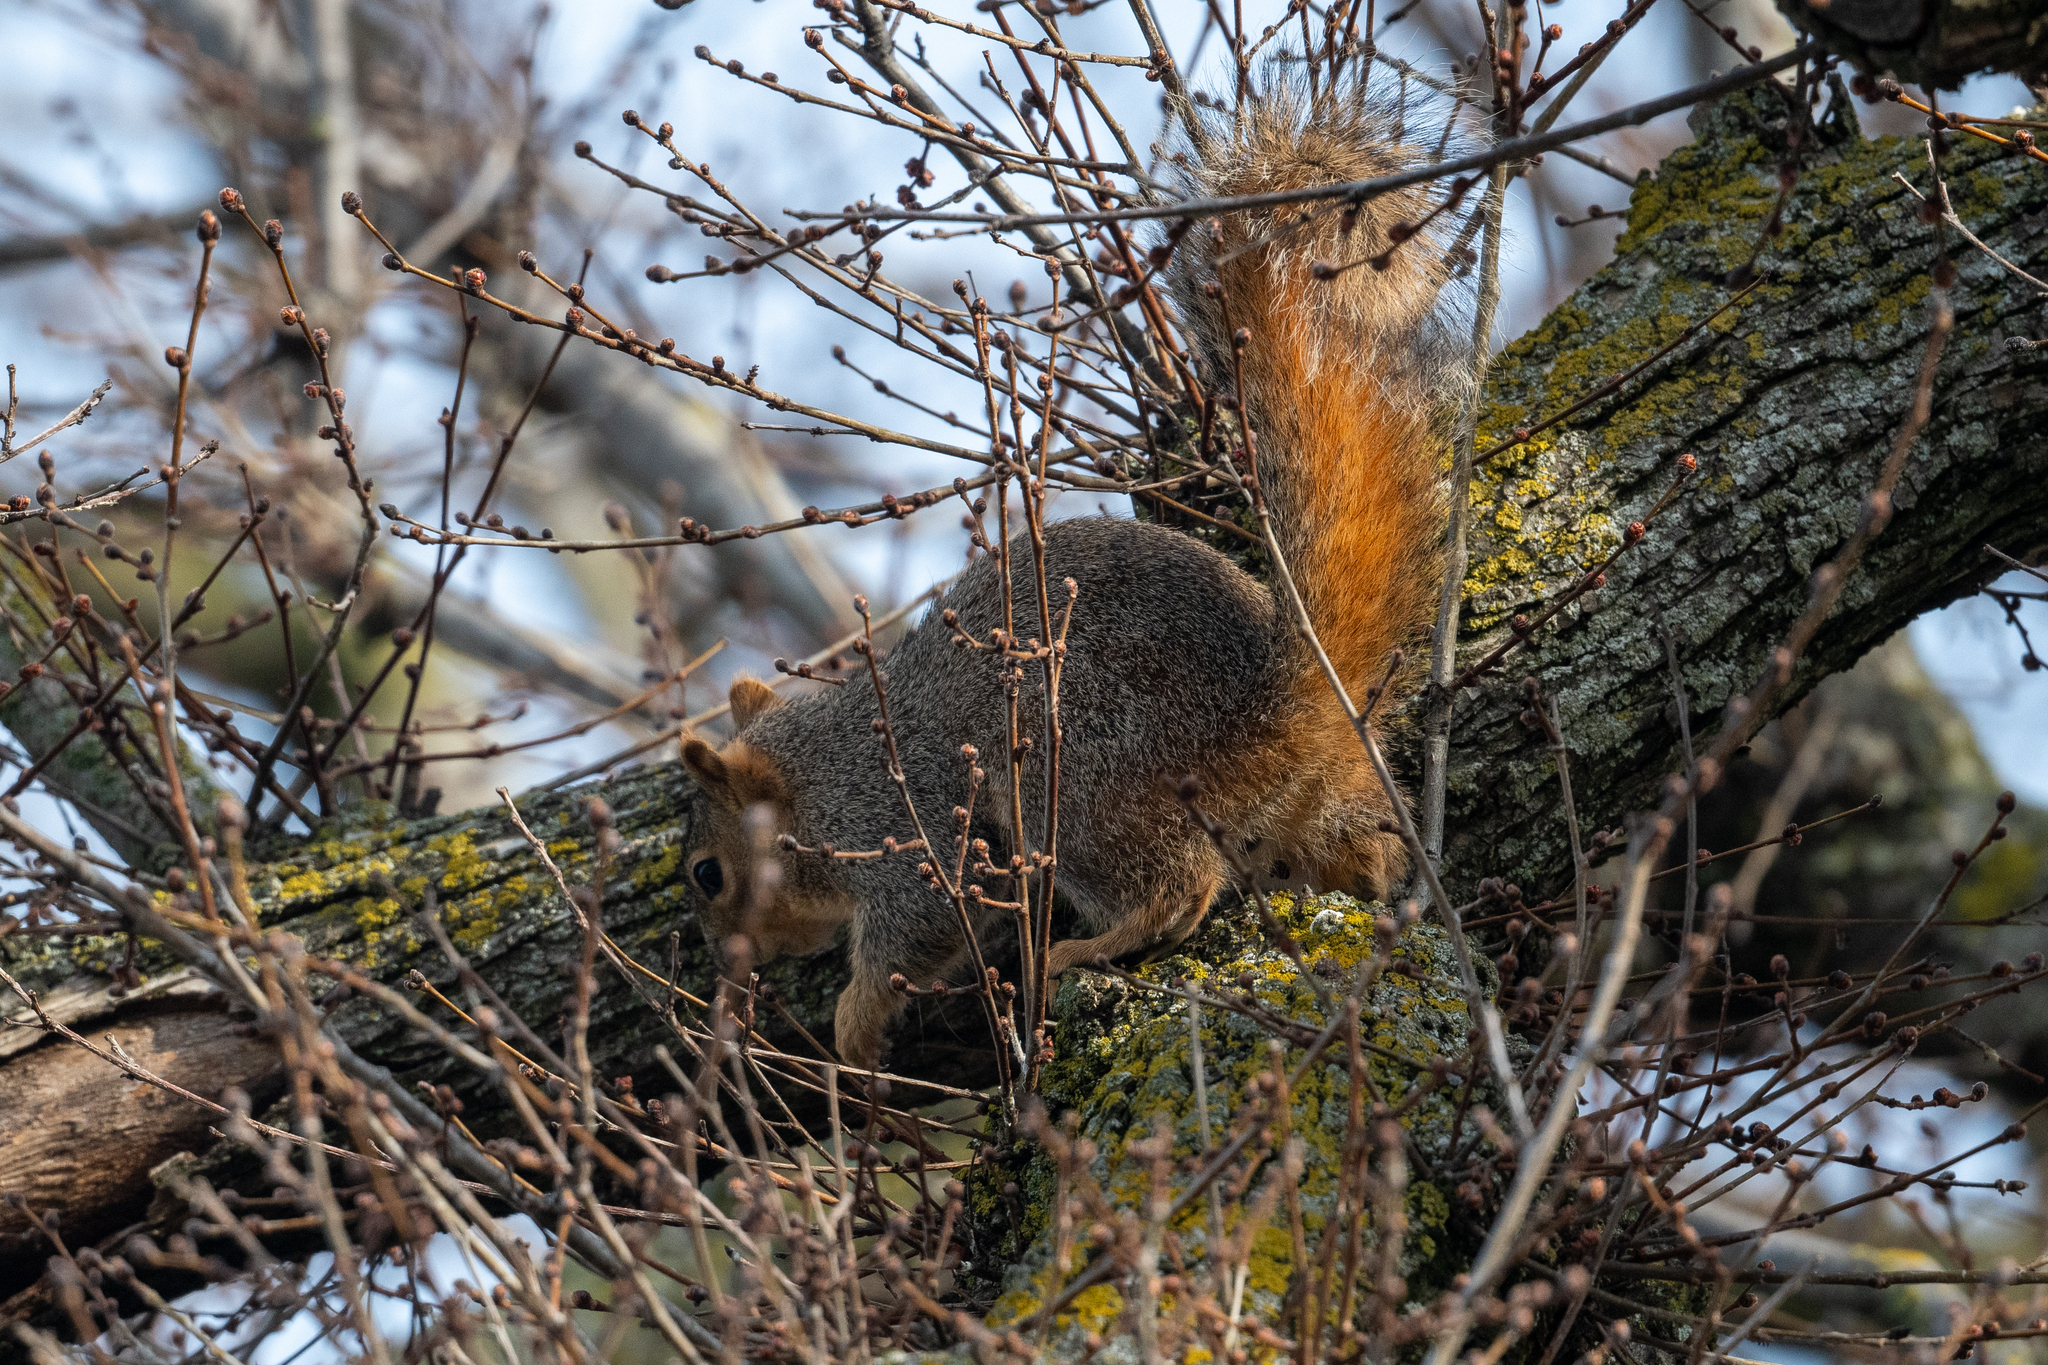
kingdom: Animalia
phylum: Chordata
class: Mammalia
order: Rodentia
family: Sciuridae
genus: Sciurus
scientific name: Sciurus niger
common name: Fox squirrel
